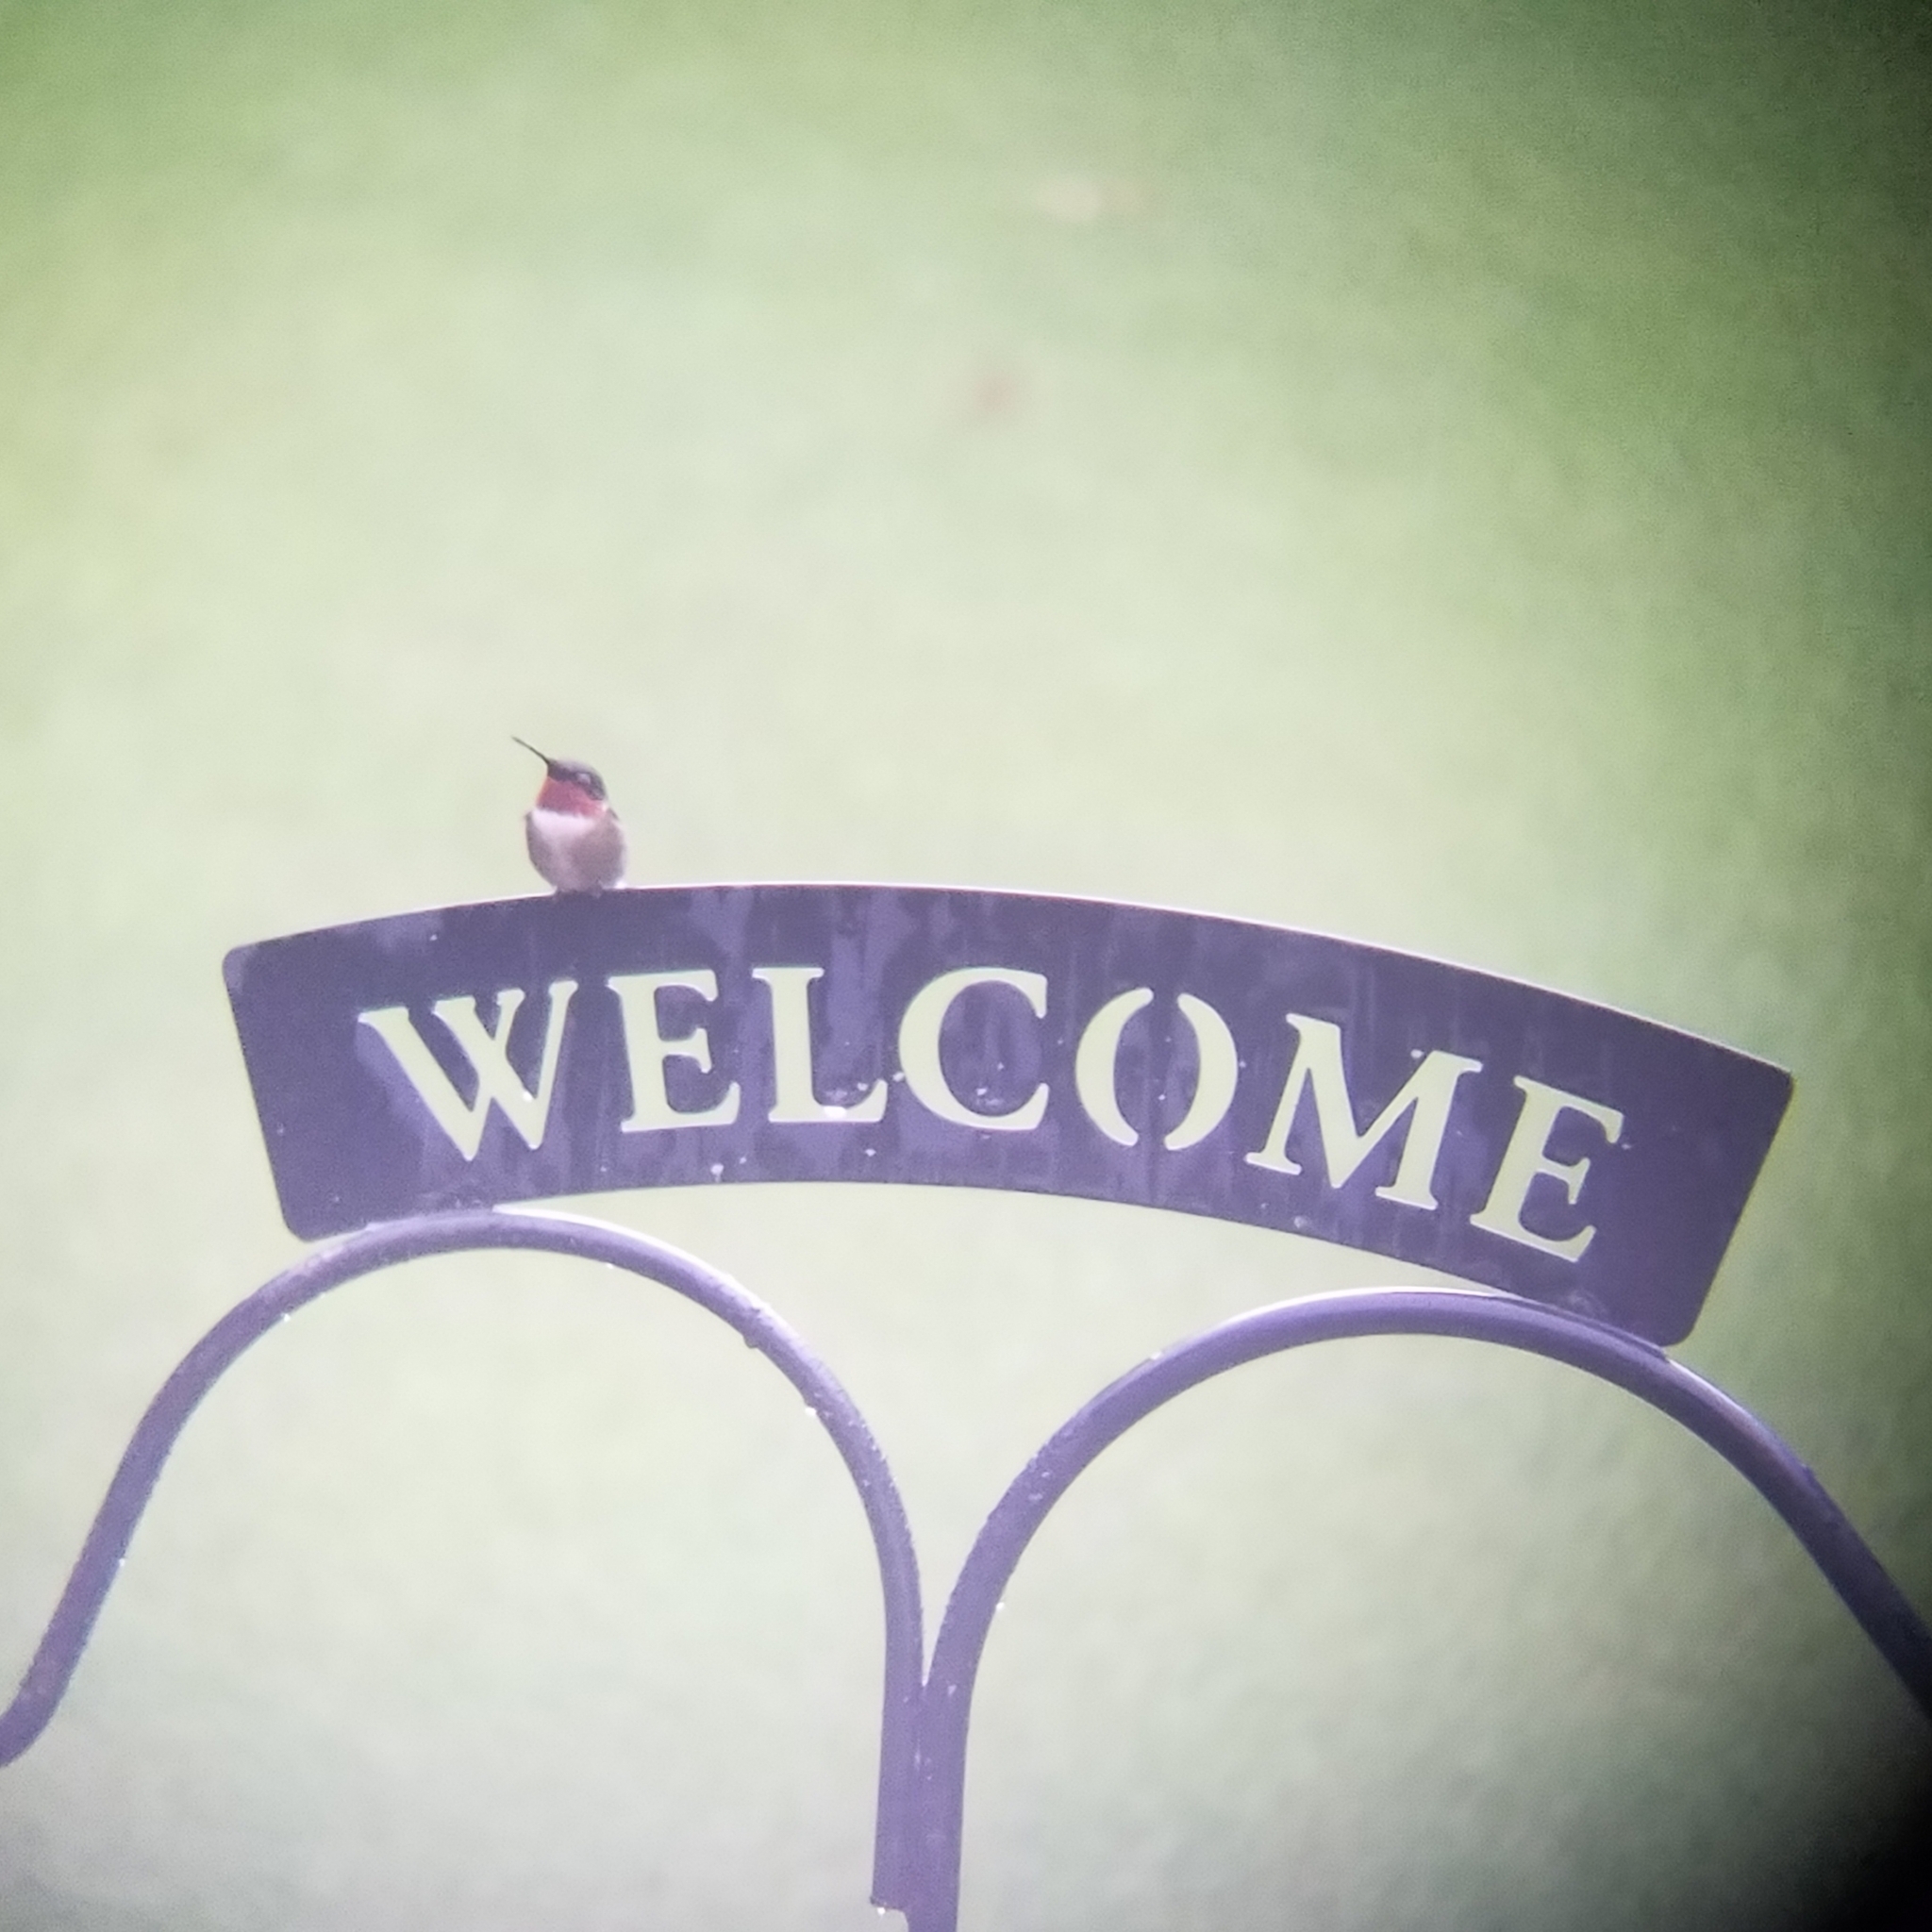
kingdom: Animalia
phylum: Chordata
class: Aves
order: Apodiformes
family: Trochilidae
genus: Archilochus
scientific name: Archilochus colubris
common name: Ruby-throated hummingbird
